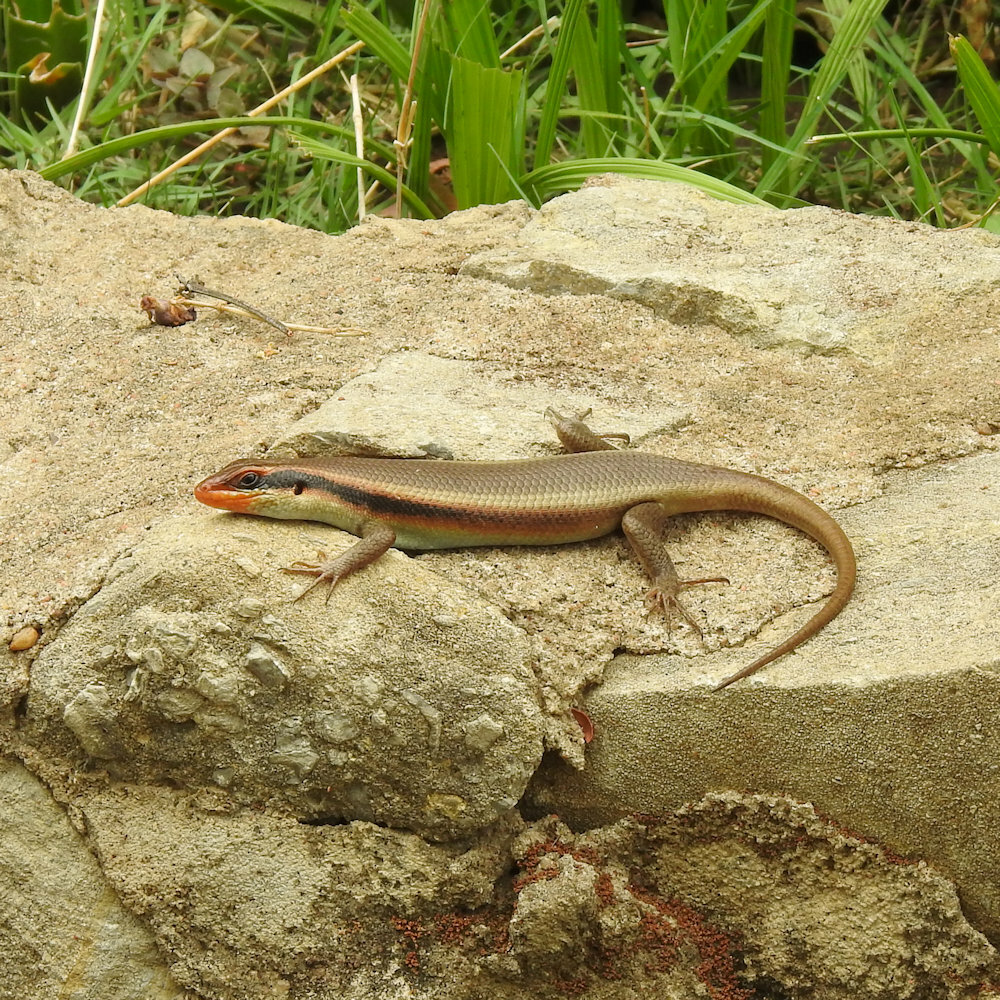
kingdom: Animalia
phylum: Chordata
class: Squamata
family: Scincidae
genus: Trachylepis
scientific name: Trachylepis wahlbergii
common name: Wahlberg’s striped skink
